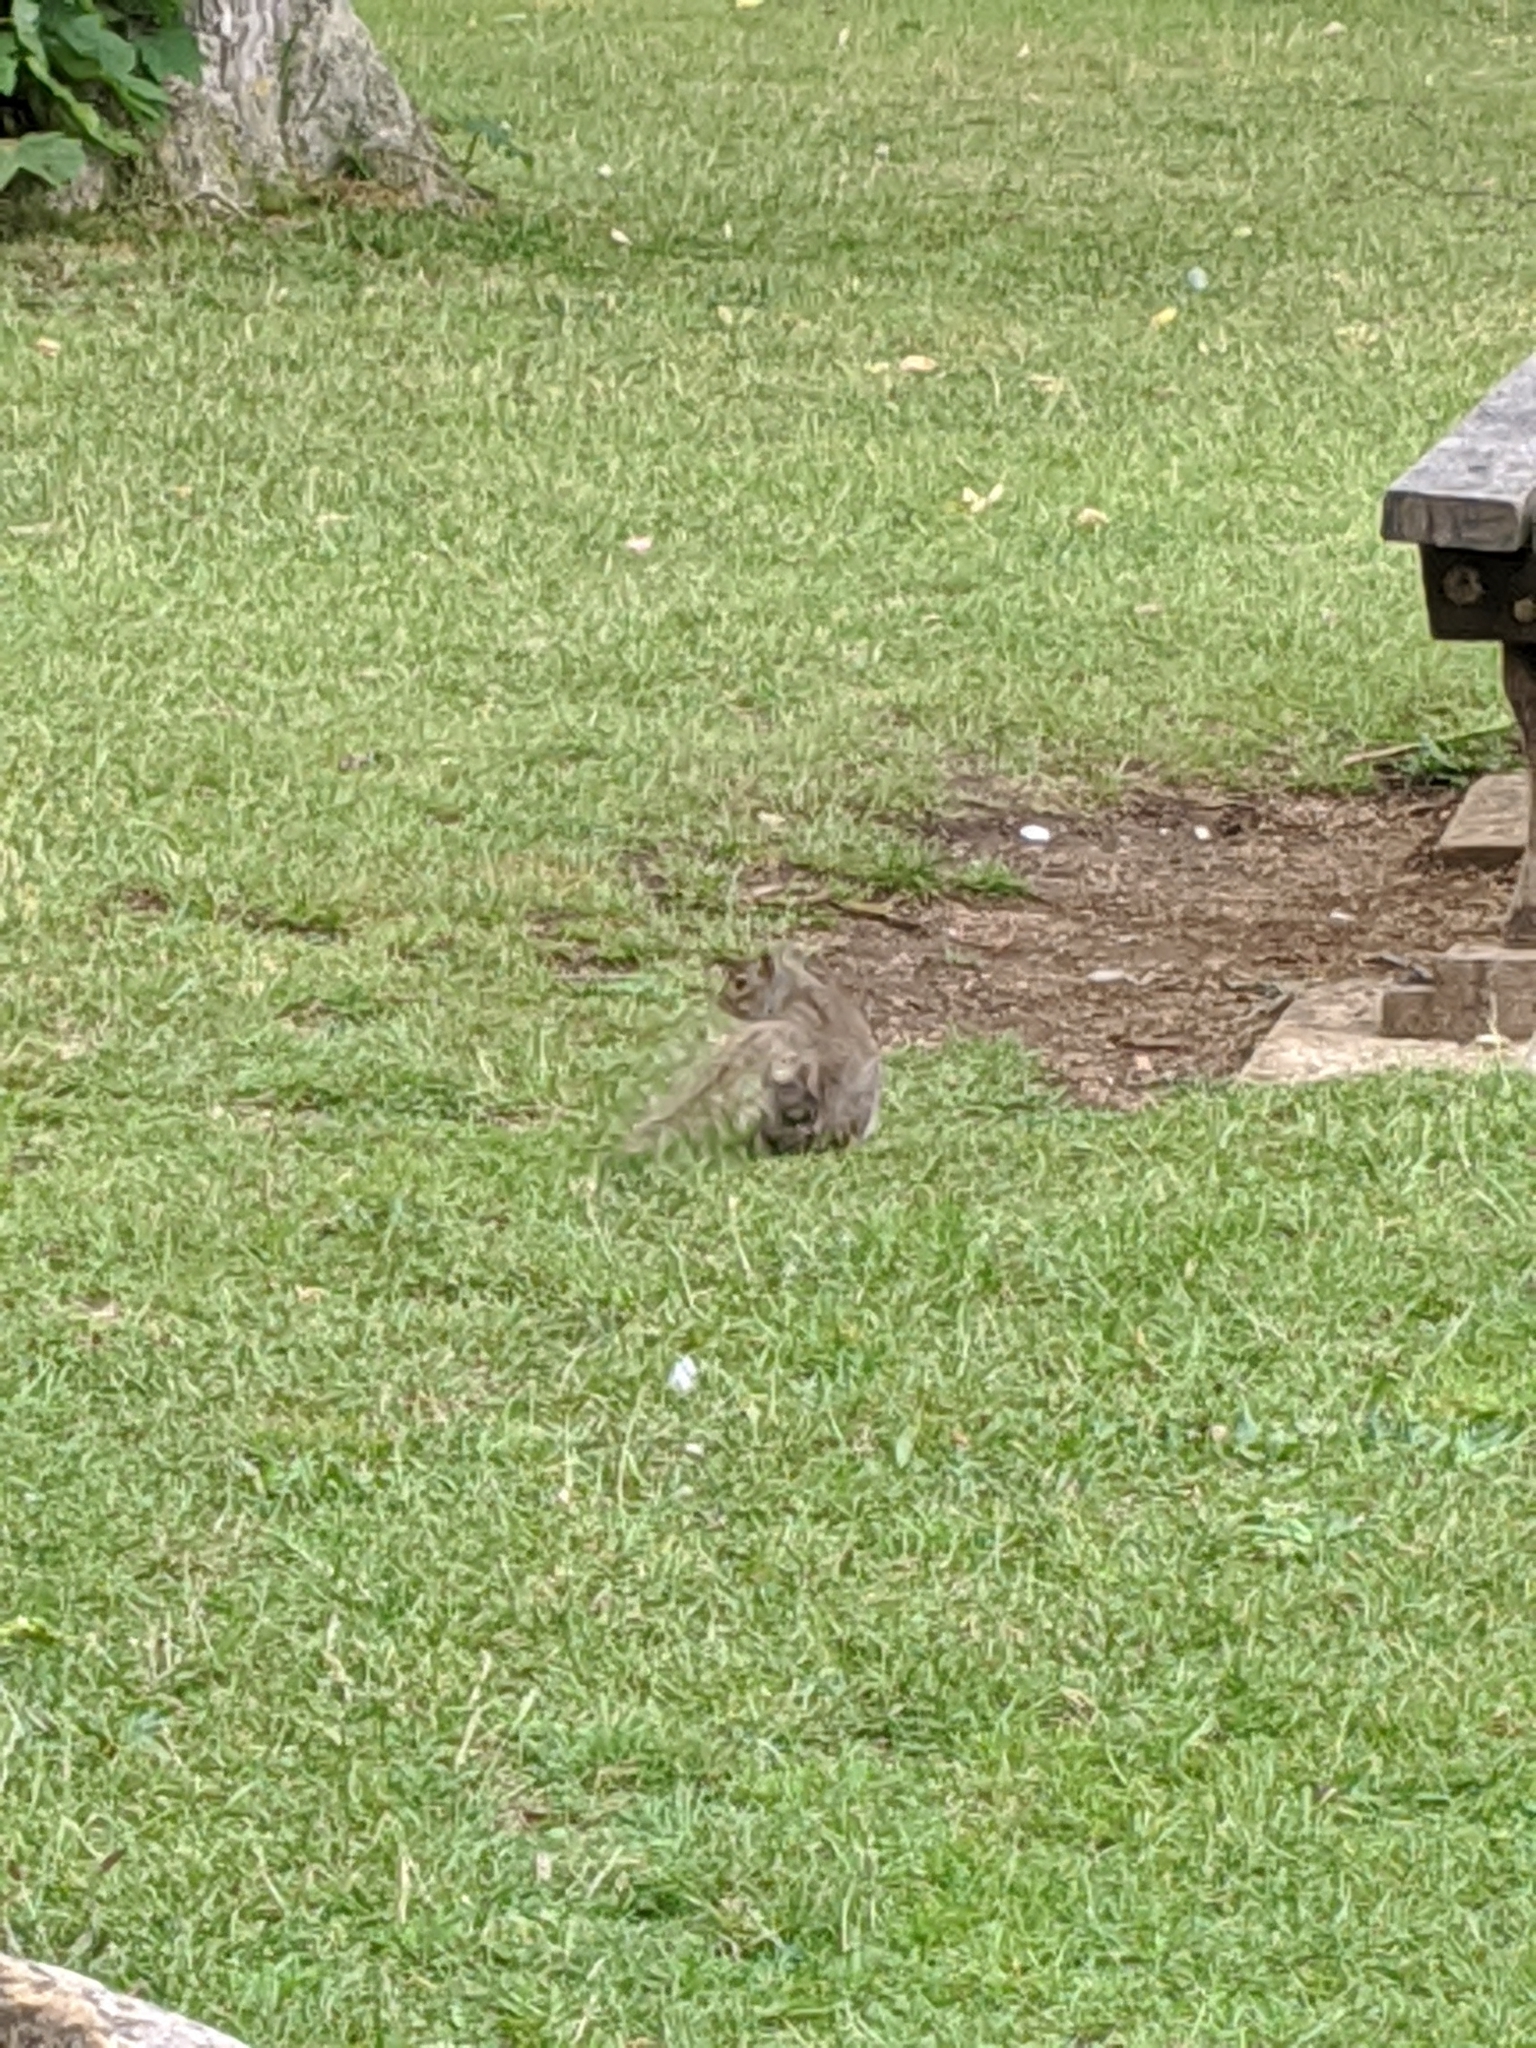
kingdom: Animalia
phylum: Chordata
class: Mammalia
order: Rodentia
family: Sciuridae
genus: Sciurus
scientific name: Sciurus carolinensis
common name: Eastern gray squirrel
